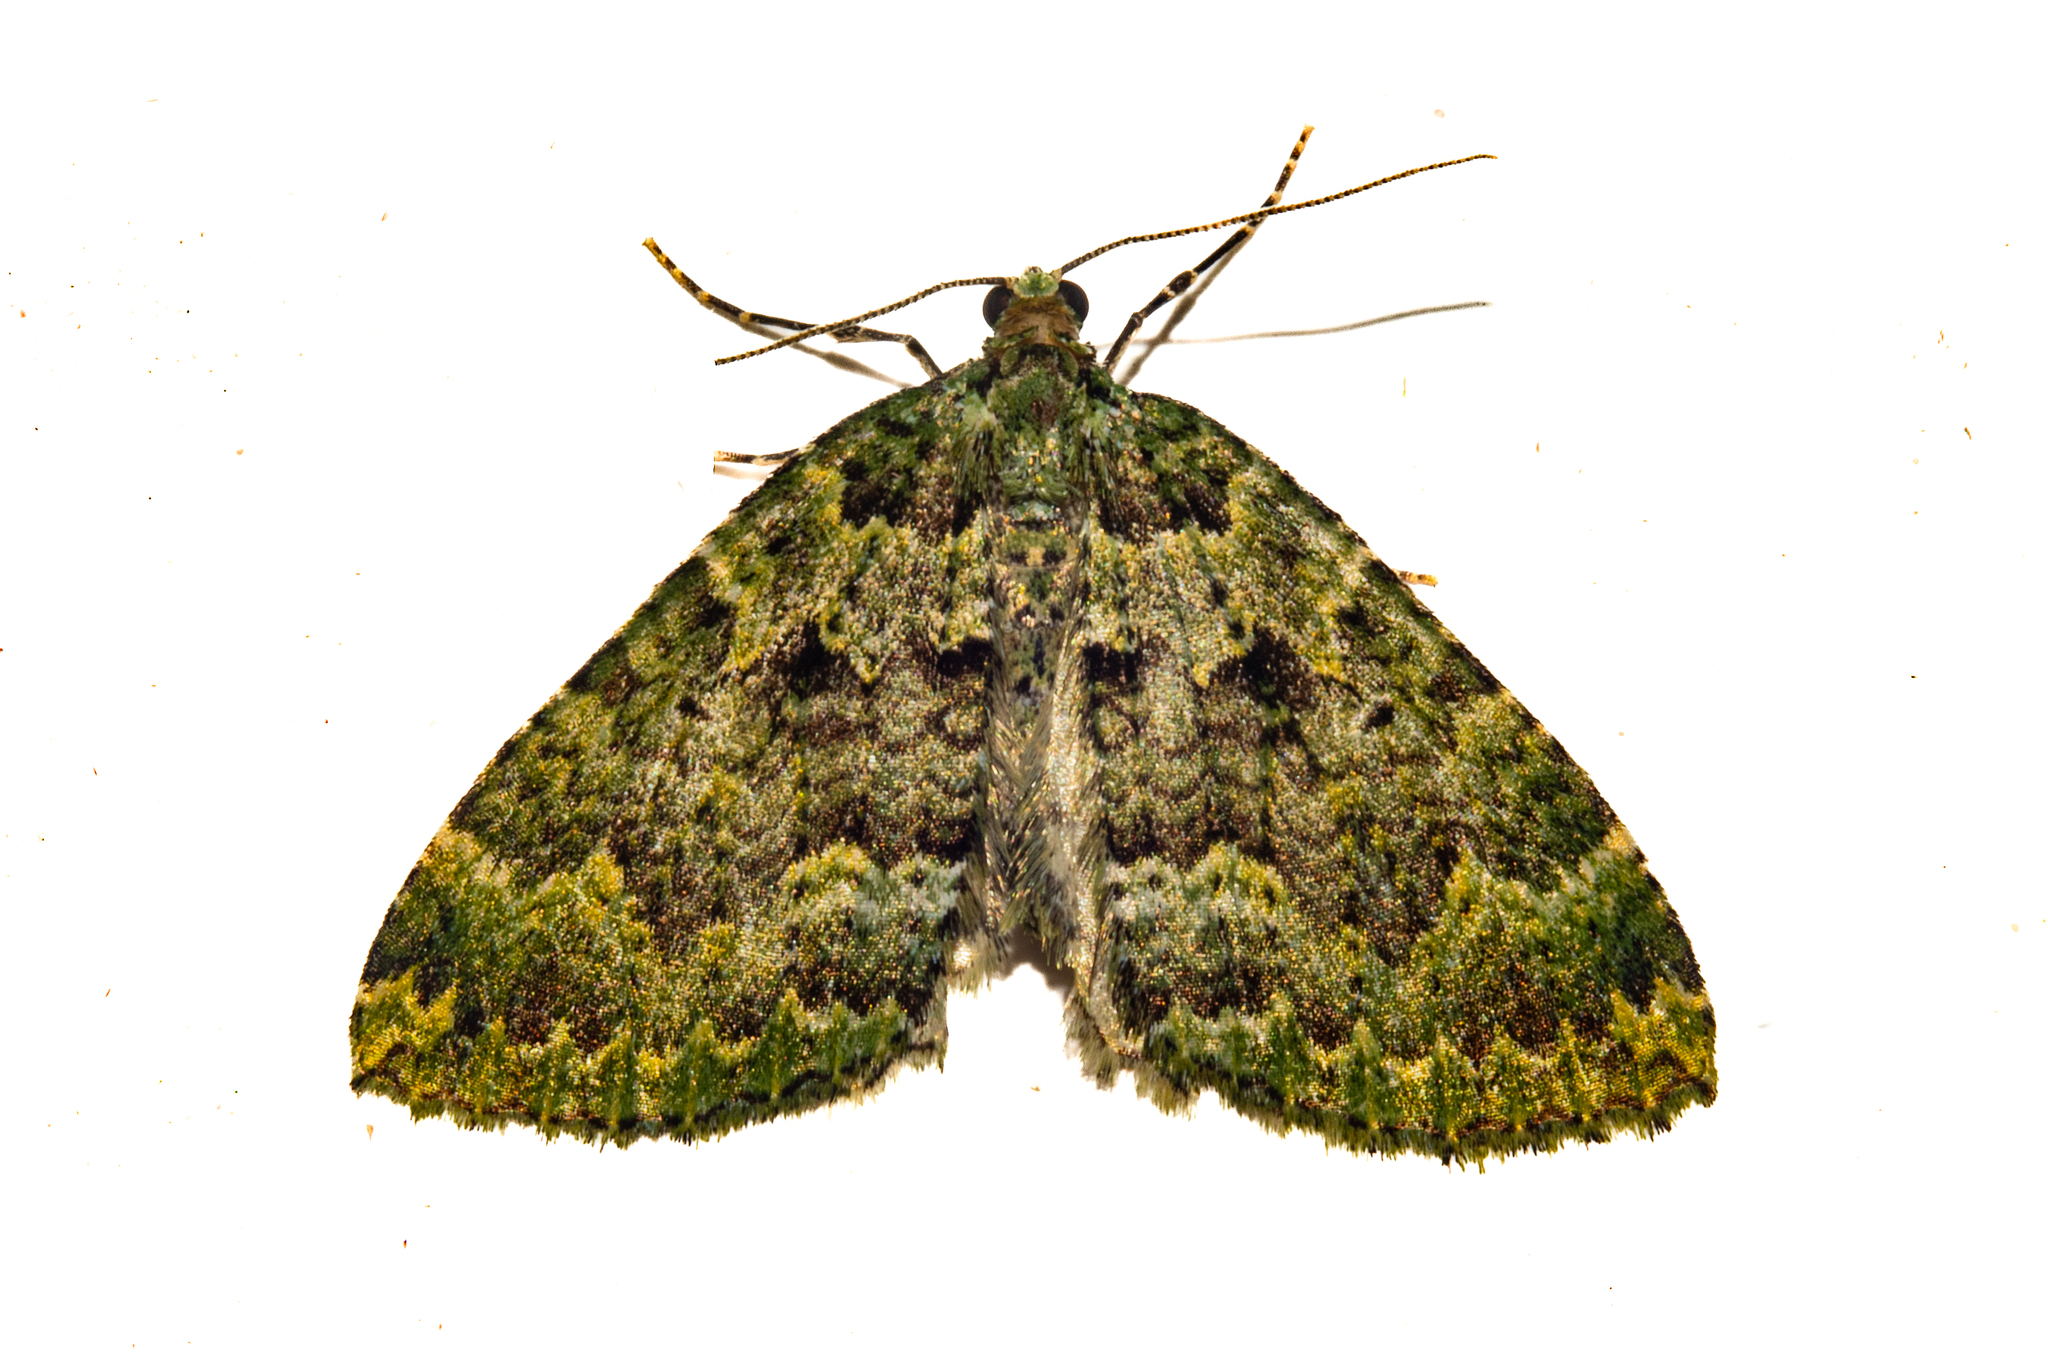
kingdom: Animalia
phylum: Arthropoda
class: Insecta
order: Lepidoptera
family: Geometridae
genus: Austrocidaria
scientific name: Austrocidaria callichlora
